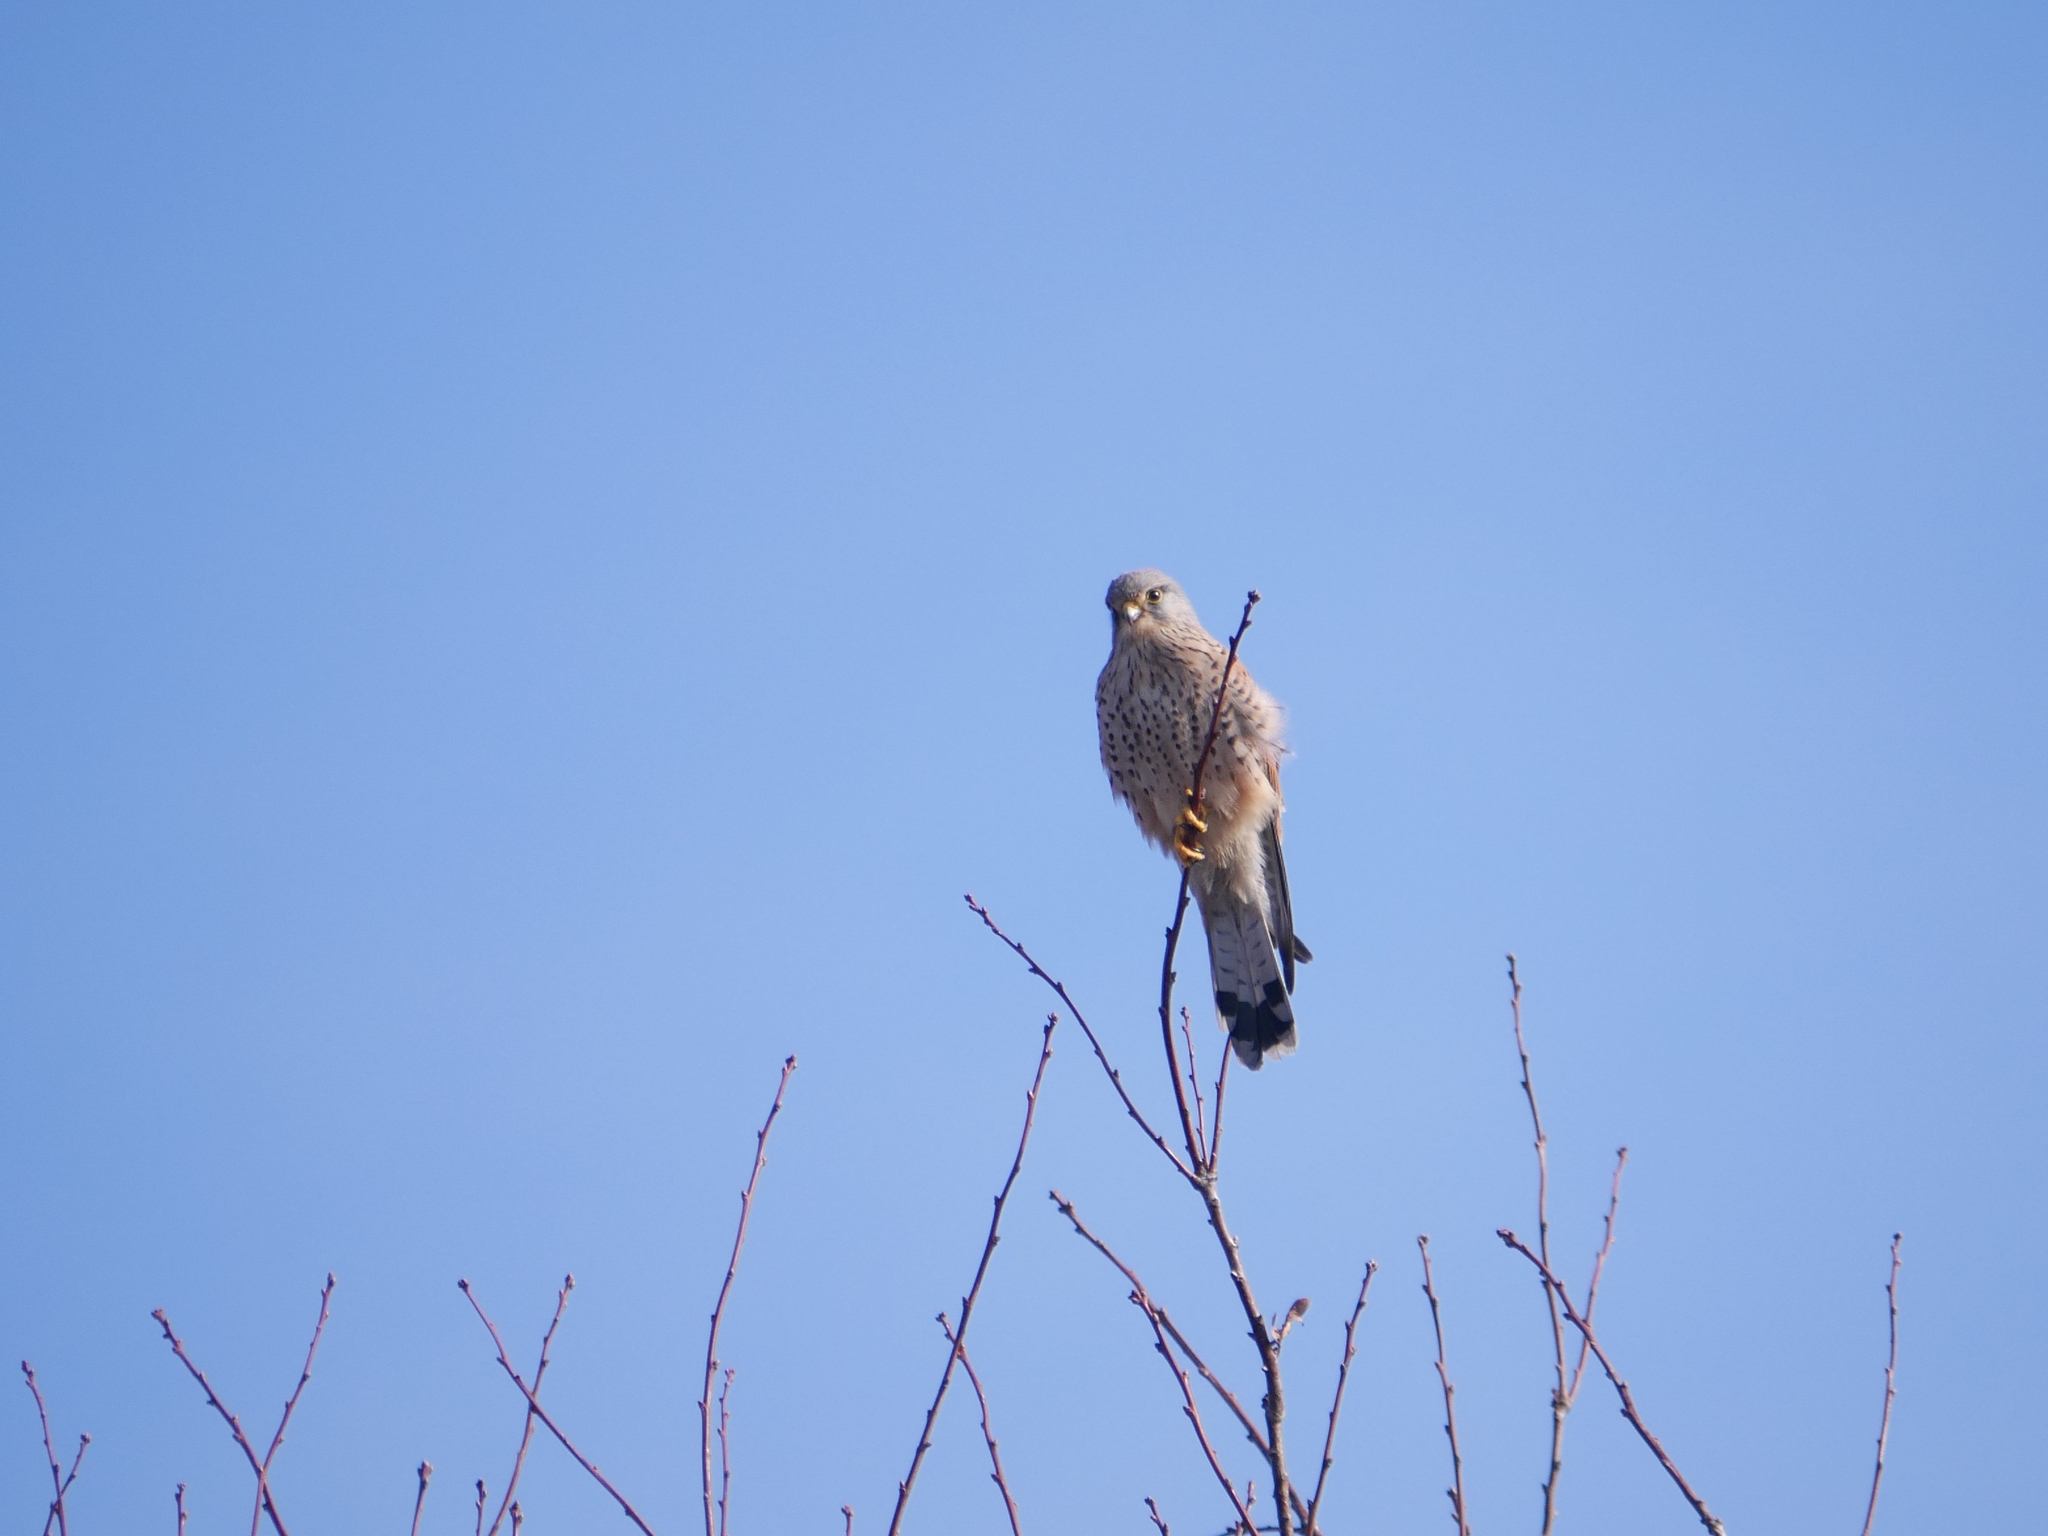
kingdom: Animalia
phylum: Chordata
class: Aves
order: Falconiformes
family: Falconidae
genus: Falco
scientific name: Falco tinnunculus
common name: Common kestrel
